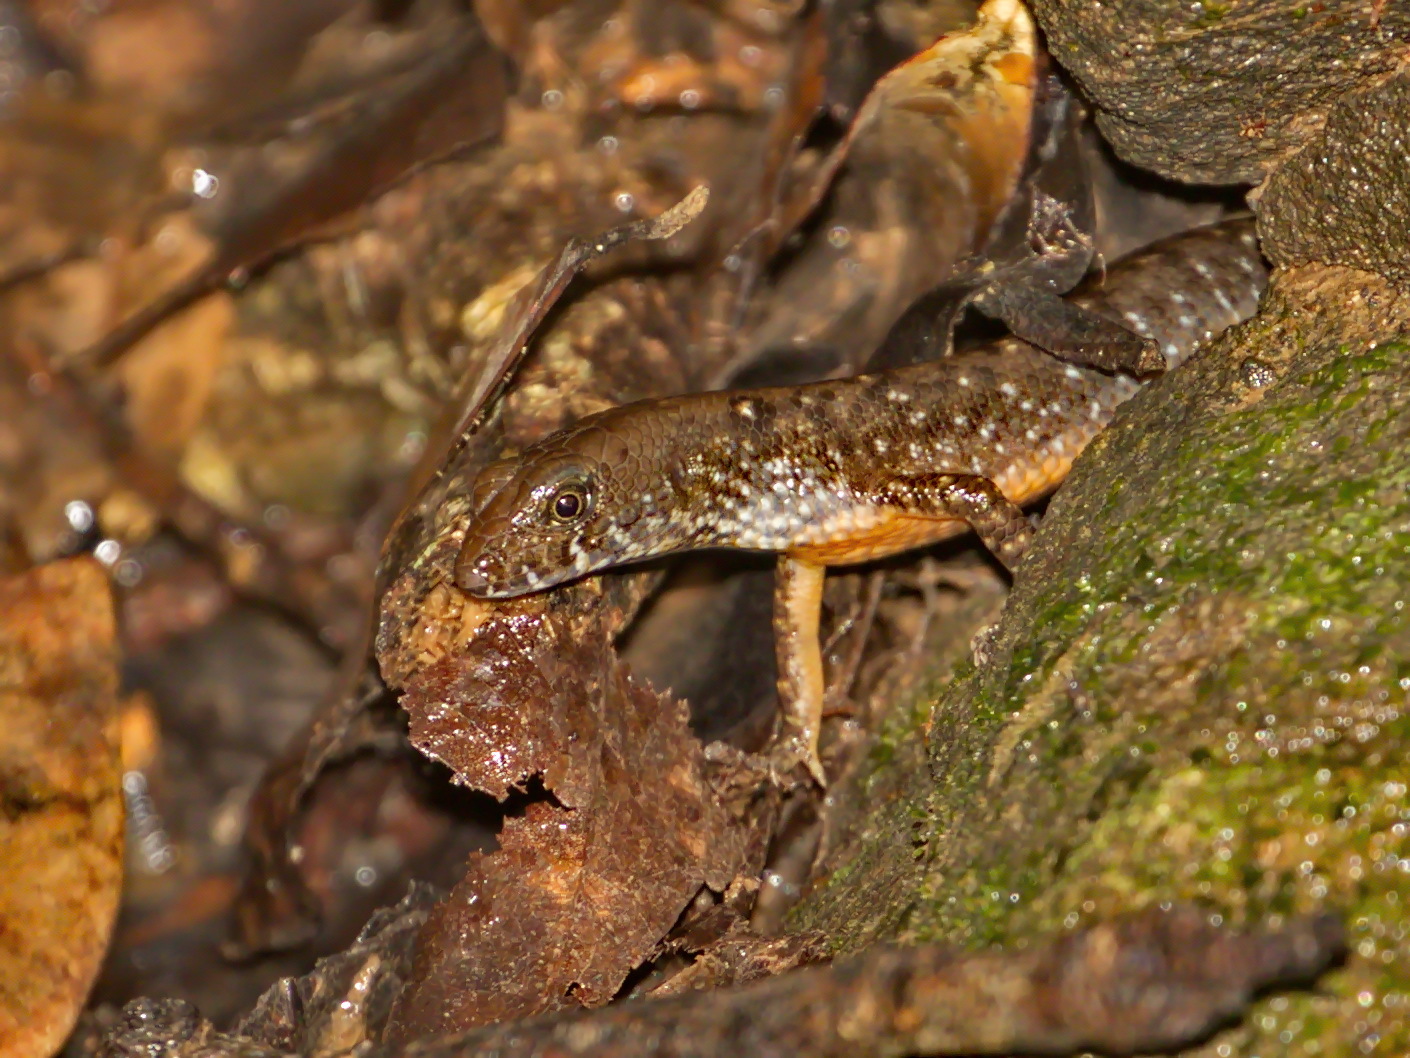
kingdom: Animalia
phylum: Chordata
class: Squamata
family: Scincidae
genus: Tropidophorus
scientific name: Tropidophorus laotus
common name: Laotian keeled skink
